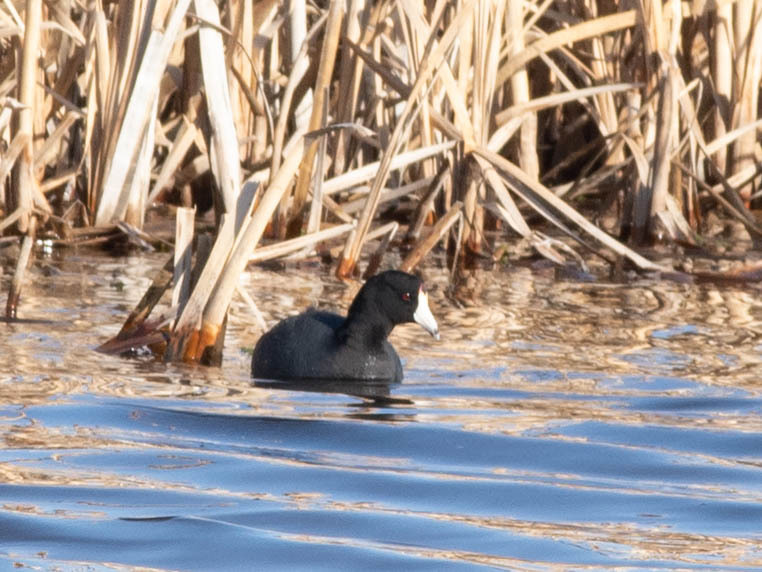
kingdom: Animalia
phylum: Chordata
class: Aves
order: Gruiformes
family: Rallidae
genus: Fulica
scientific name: Fulica americana
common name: American coot
